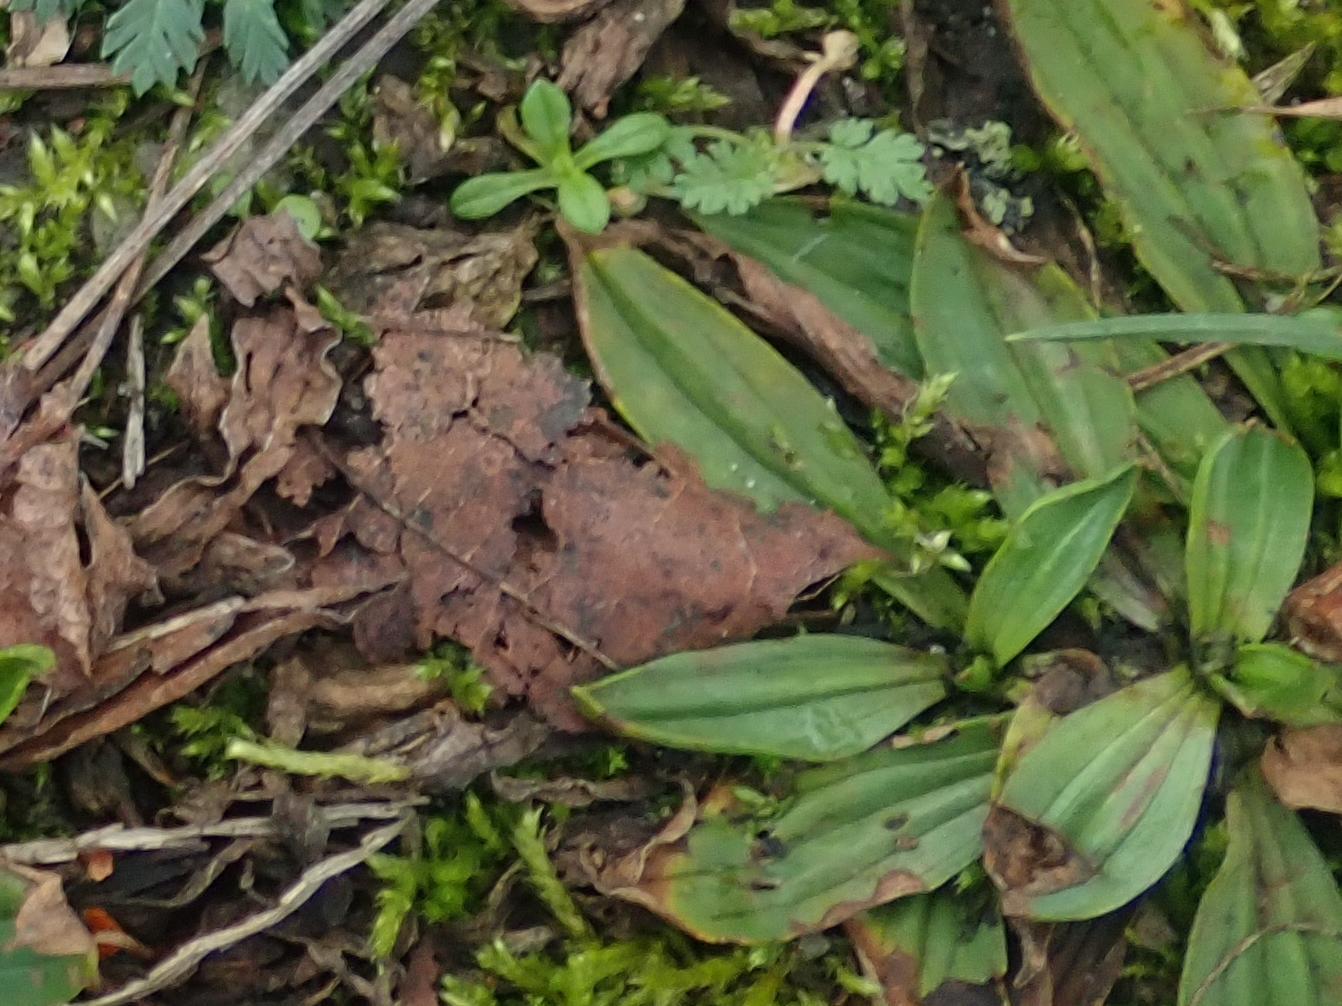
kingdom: Plantae
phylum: Tracheophyta
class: Magnoliopsida
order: Lamiales
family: Plantaginaceae
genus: Plantago
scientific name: Plantago lanceolata
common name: Ribwort plantain
